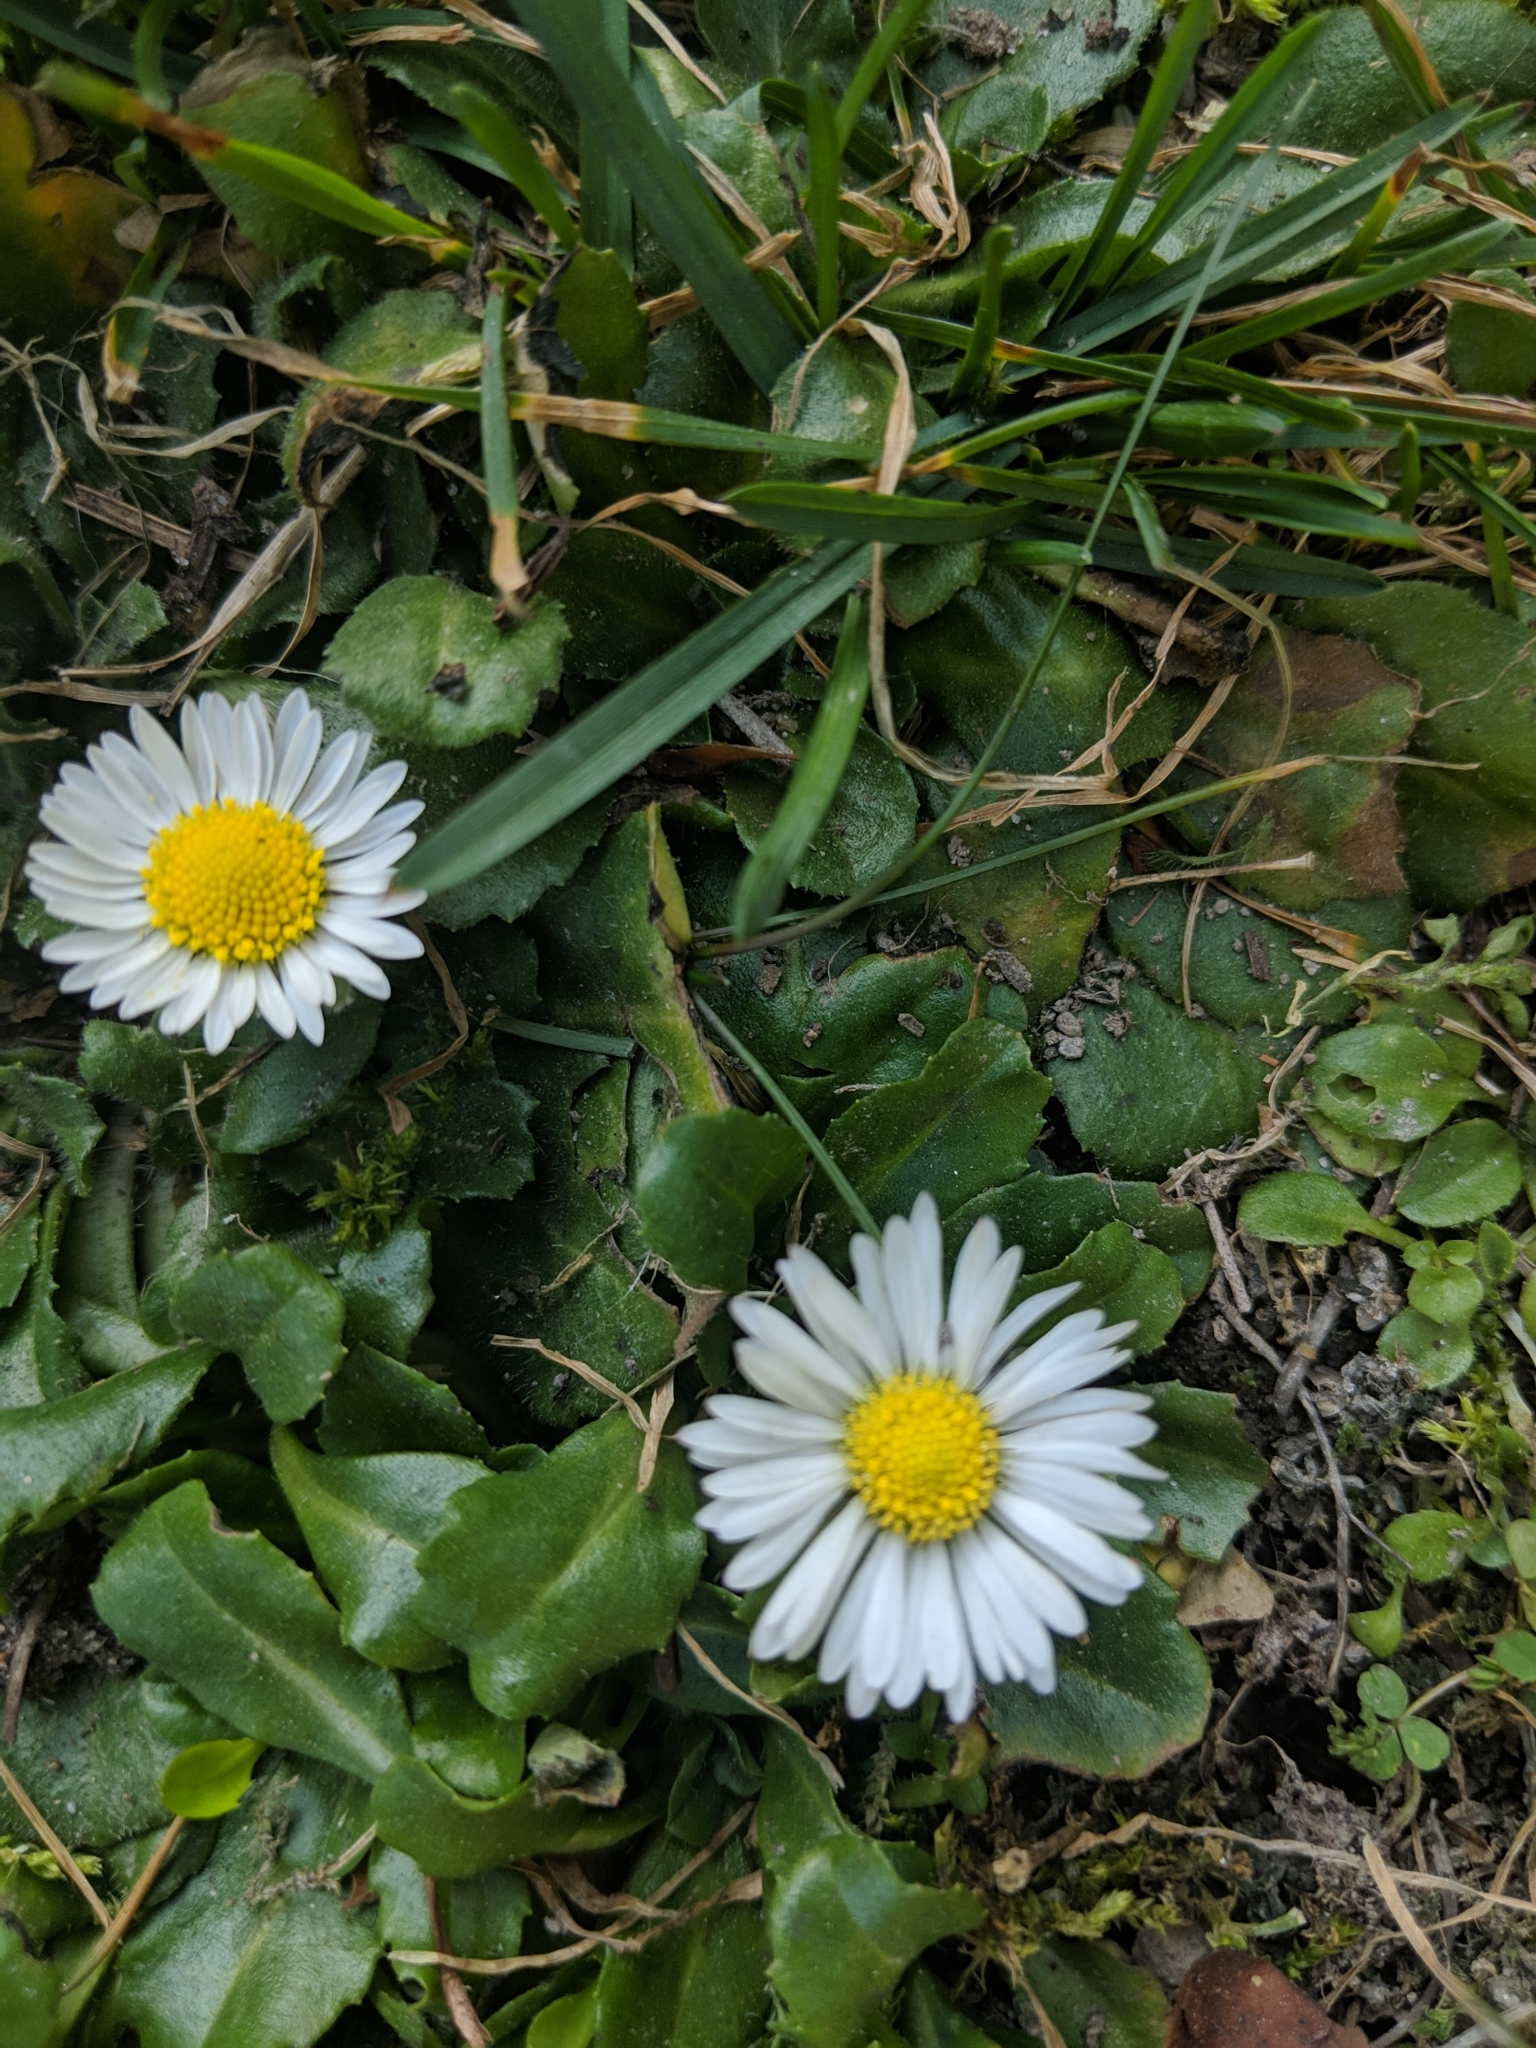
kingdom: Plantae
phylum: Tracheophyta
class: Magnoliopsida
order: Asterales
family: Asteraceae
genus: Bellis
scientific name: Bellis perennis
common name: Lawndaisy
